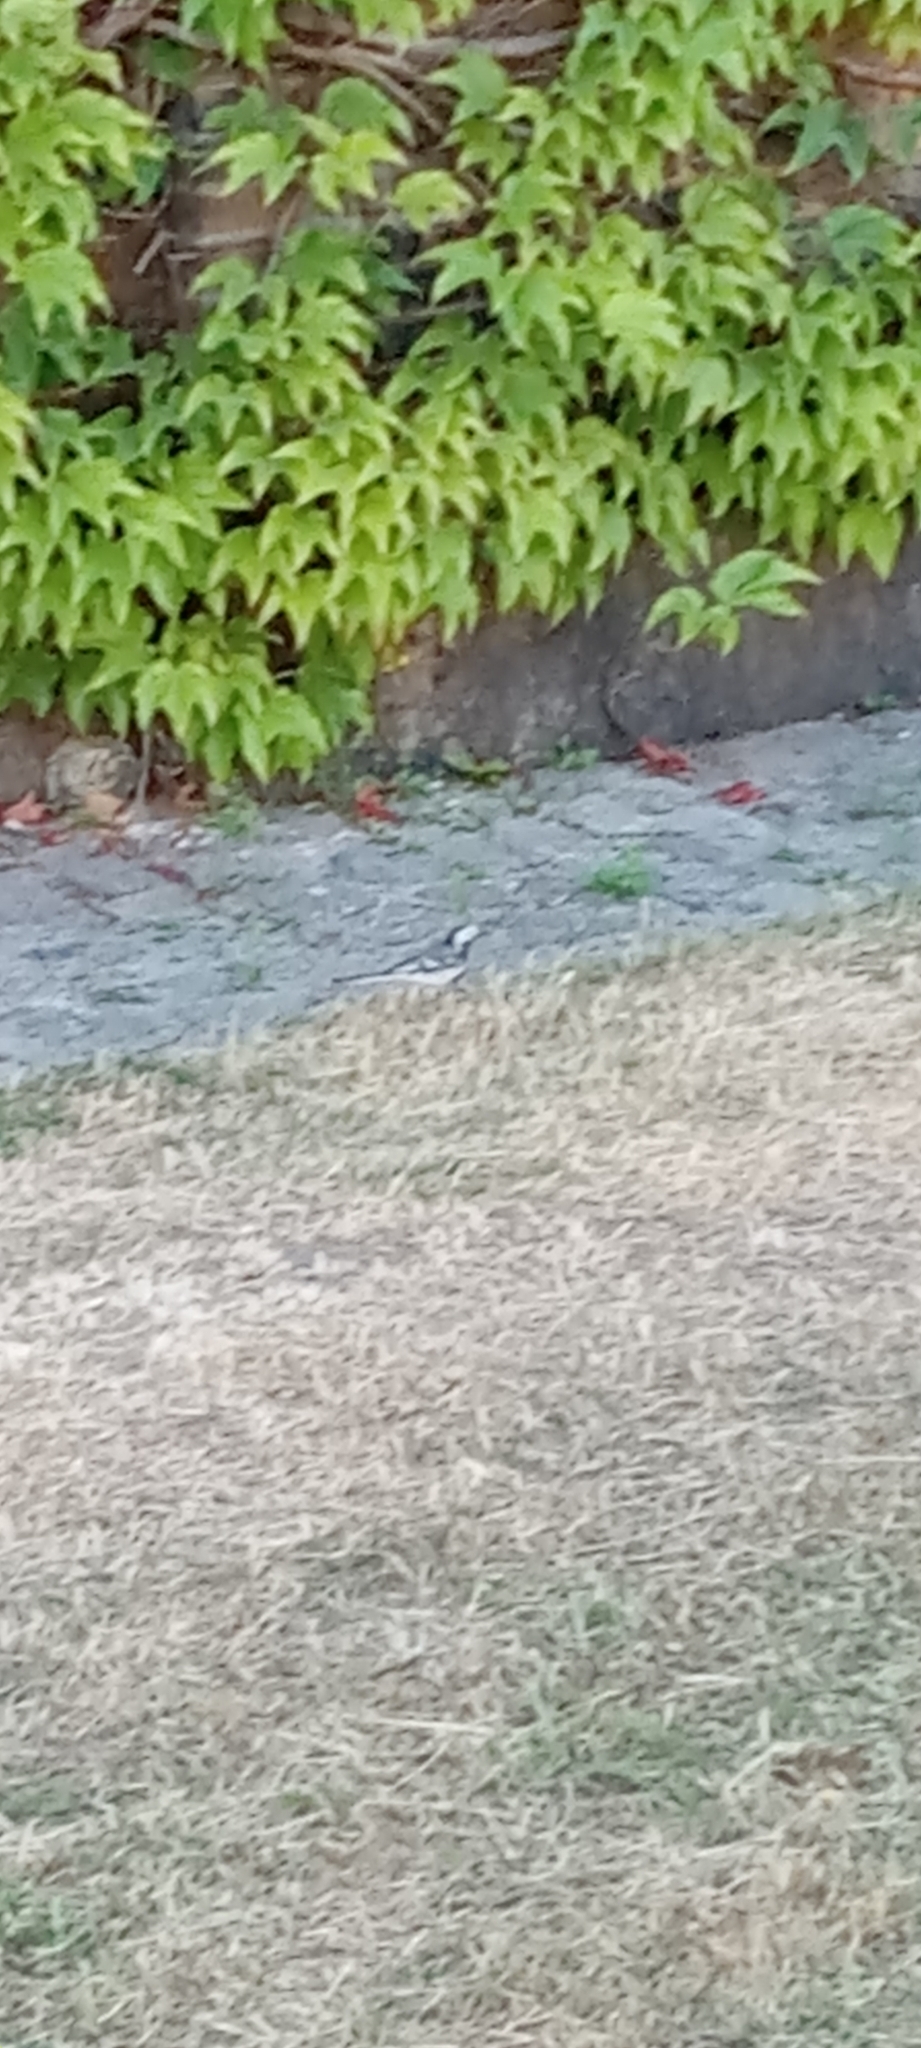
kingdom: Animalia
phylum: Chordata
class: Aves
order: Passeriformes
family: Motacillidae
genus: Motacilla
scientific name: Motacilla alba
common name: White wagtail
